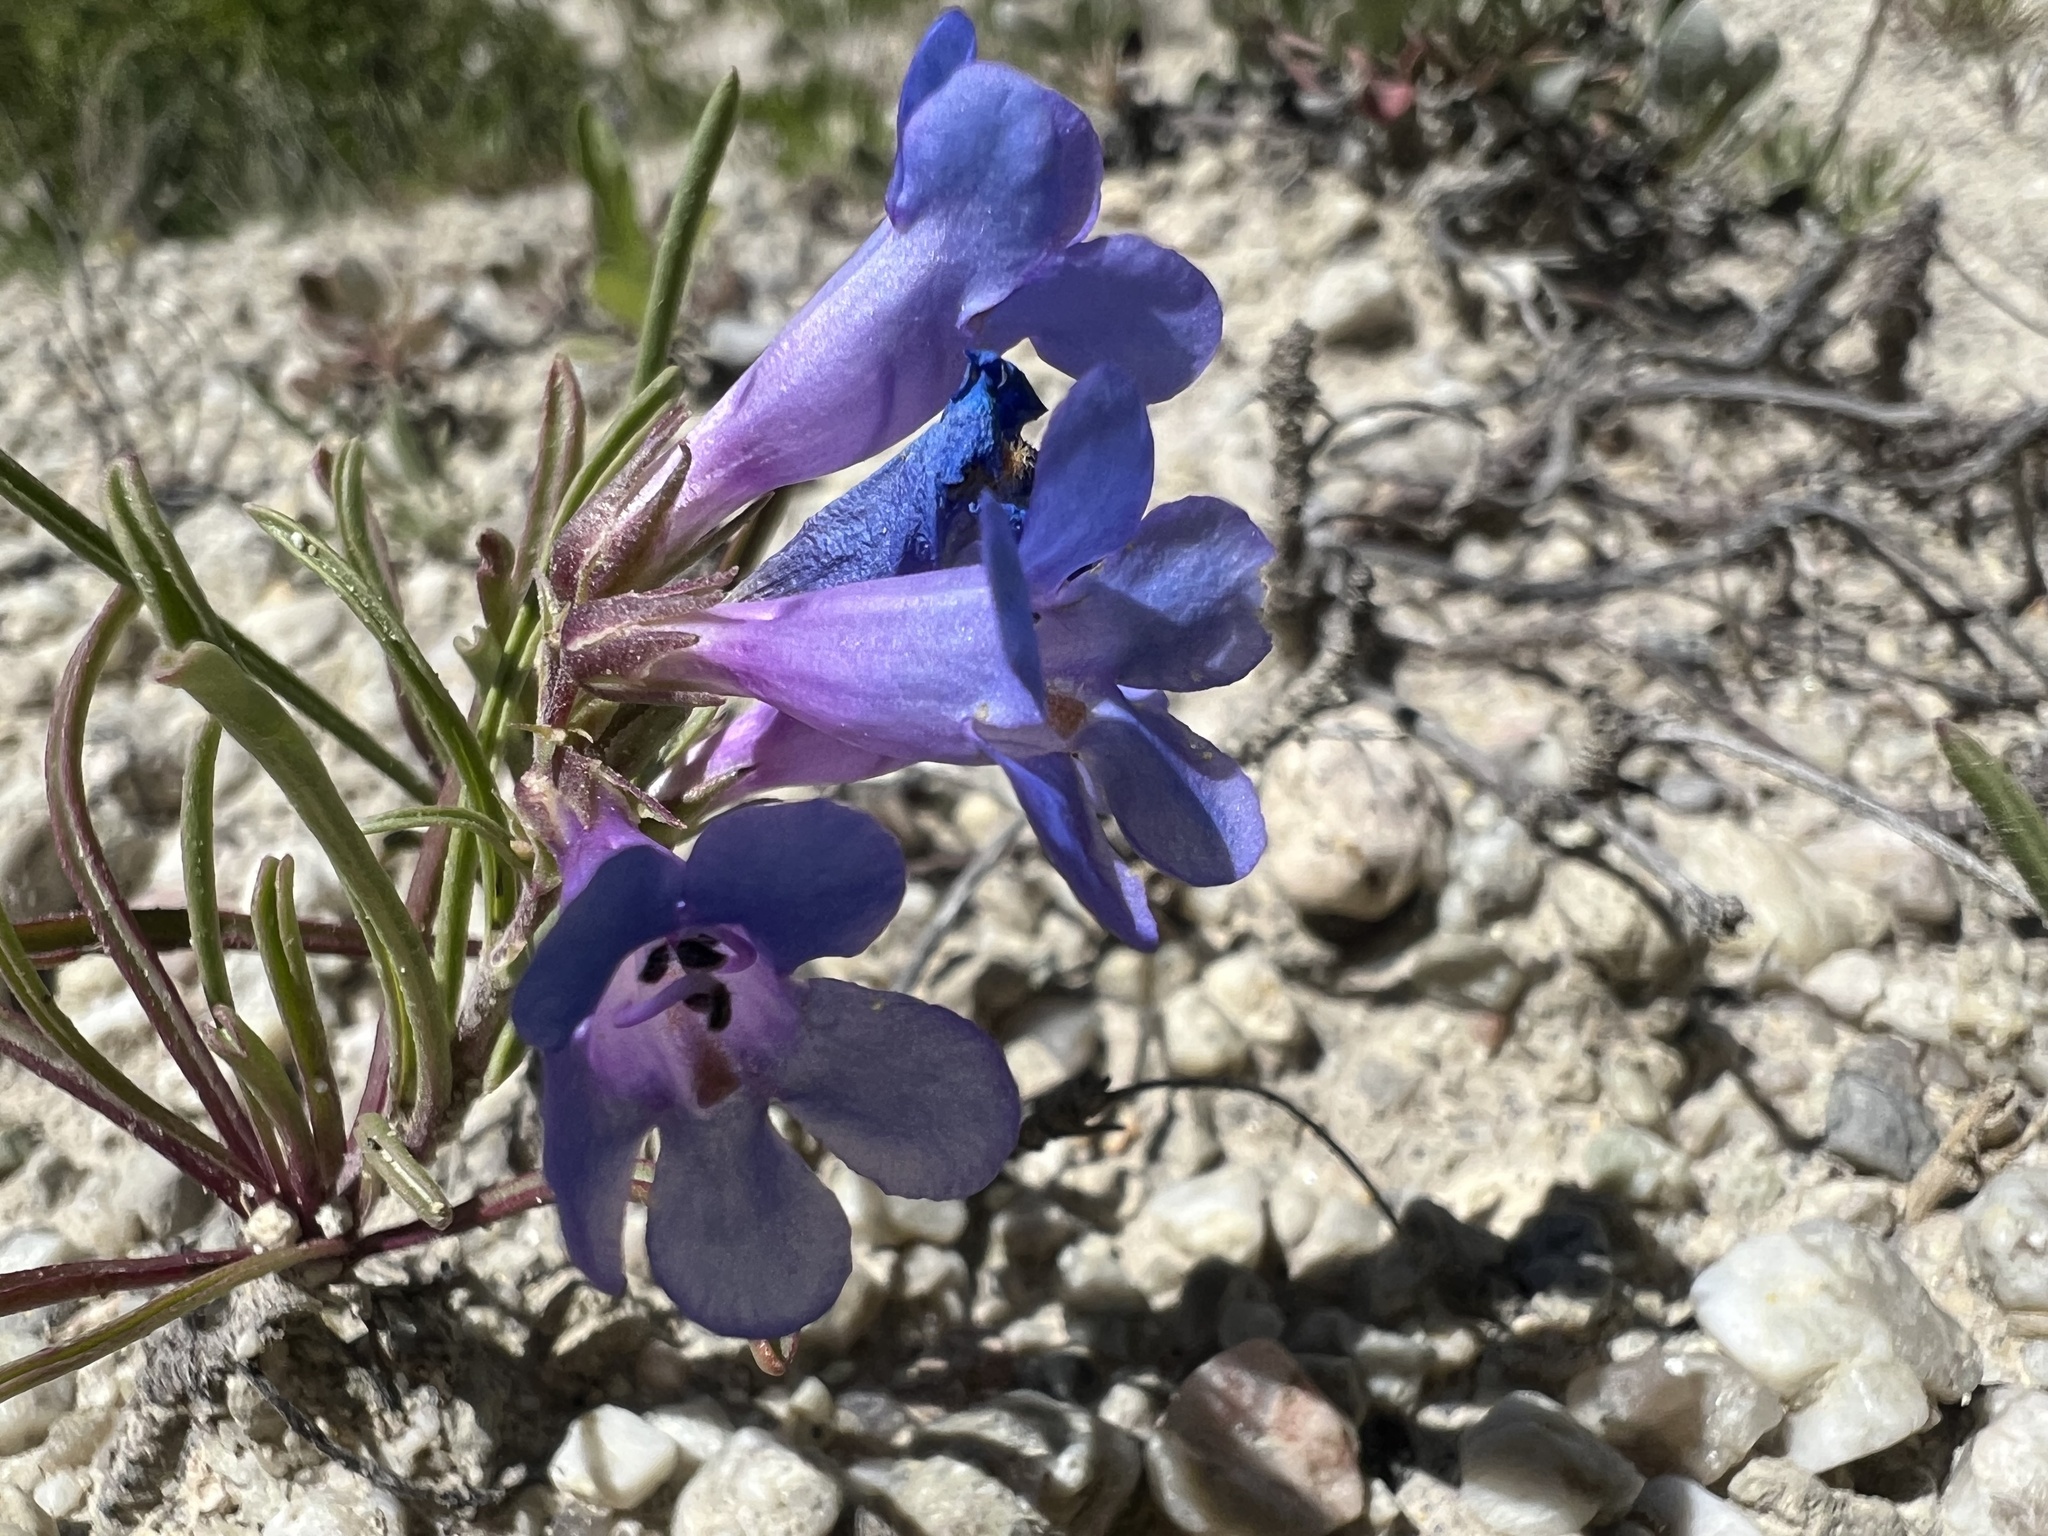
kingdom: Plantae
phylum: Tracheophyta
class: Magnoliopsida
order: Lamiales
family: Plantaginaceae
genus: Penstemon
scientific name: Penstemon penlandii
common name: Penland's beardtongue
